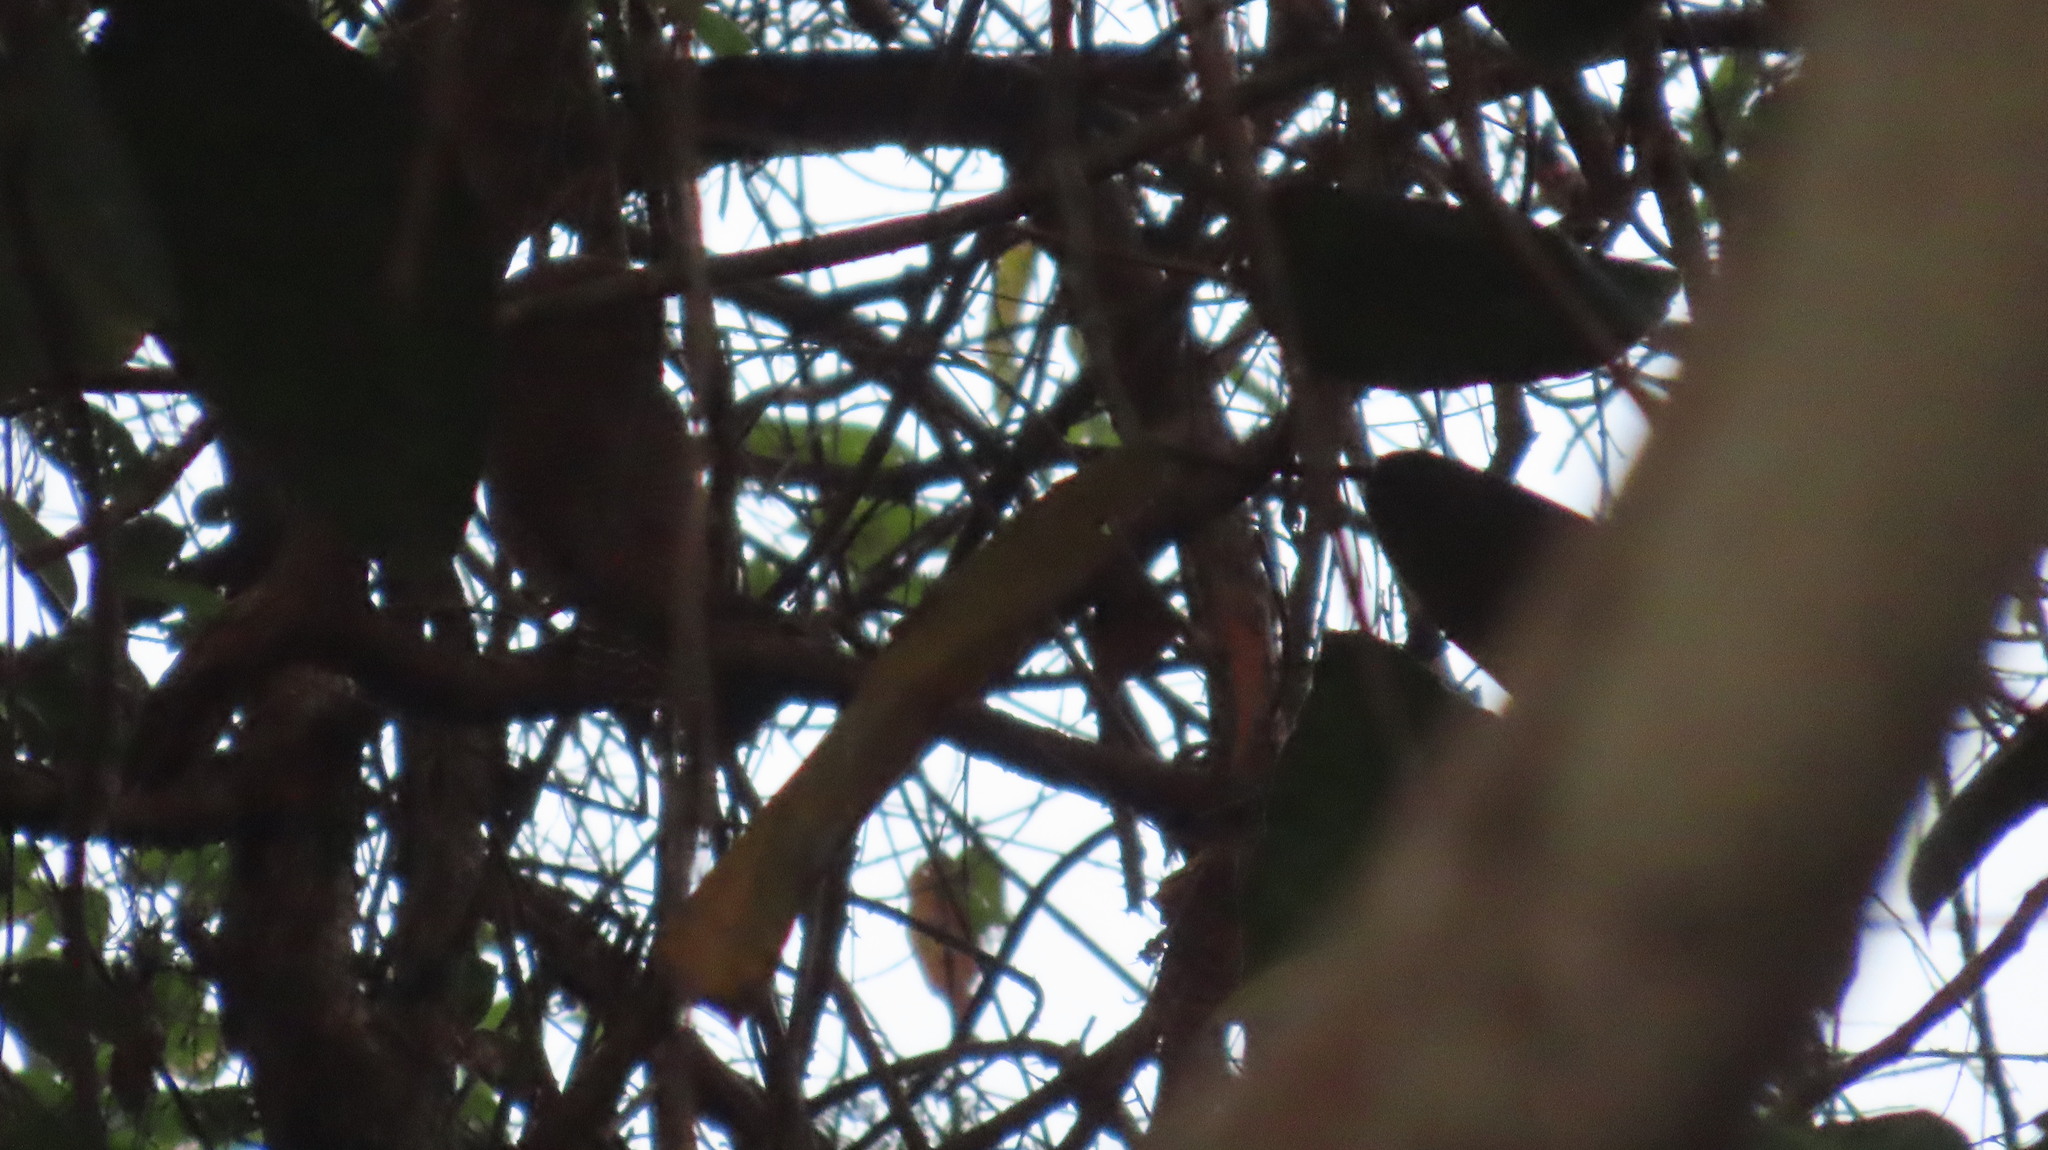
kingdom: Animalia
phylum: Chordata
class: Aves
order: Strigiformes
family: Strigidae
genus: Glaucidium
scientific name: Glaucidium radiatum
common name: Jungle owlet
